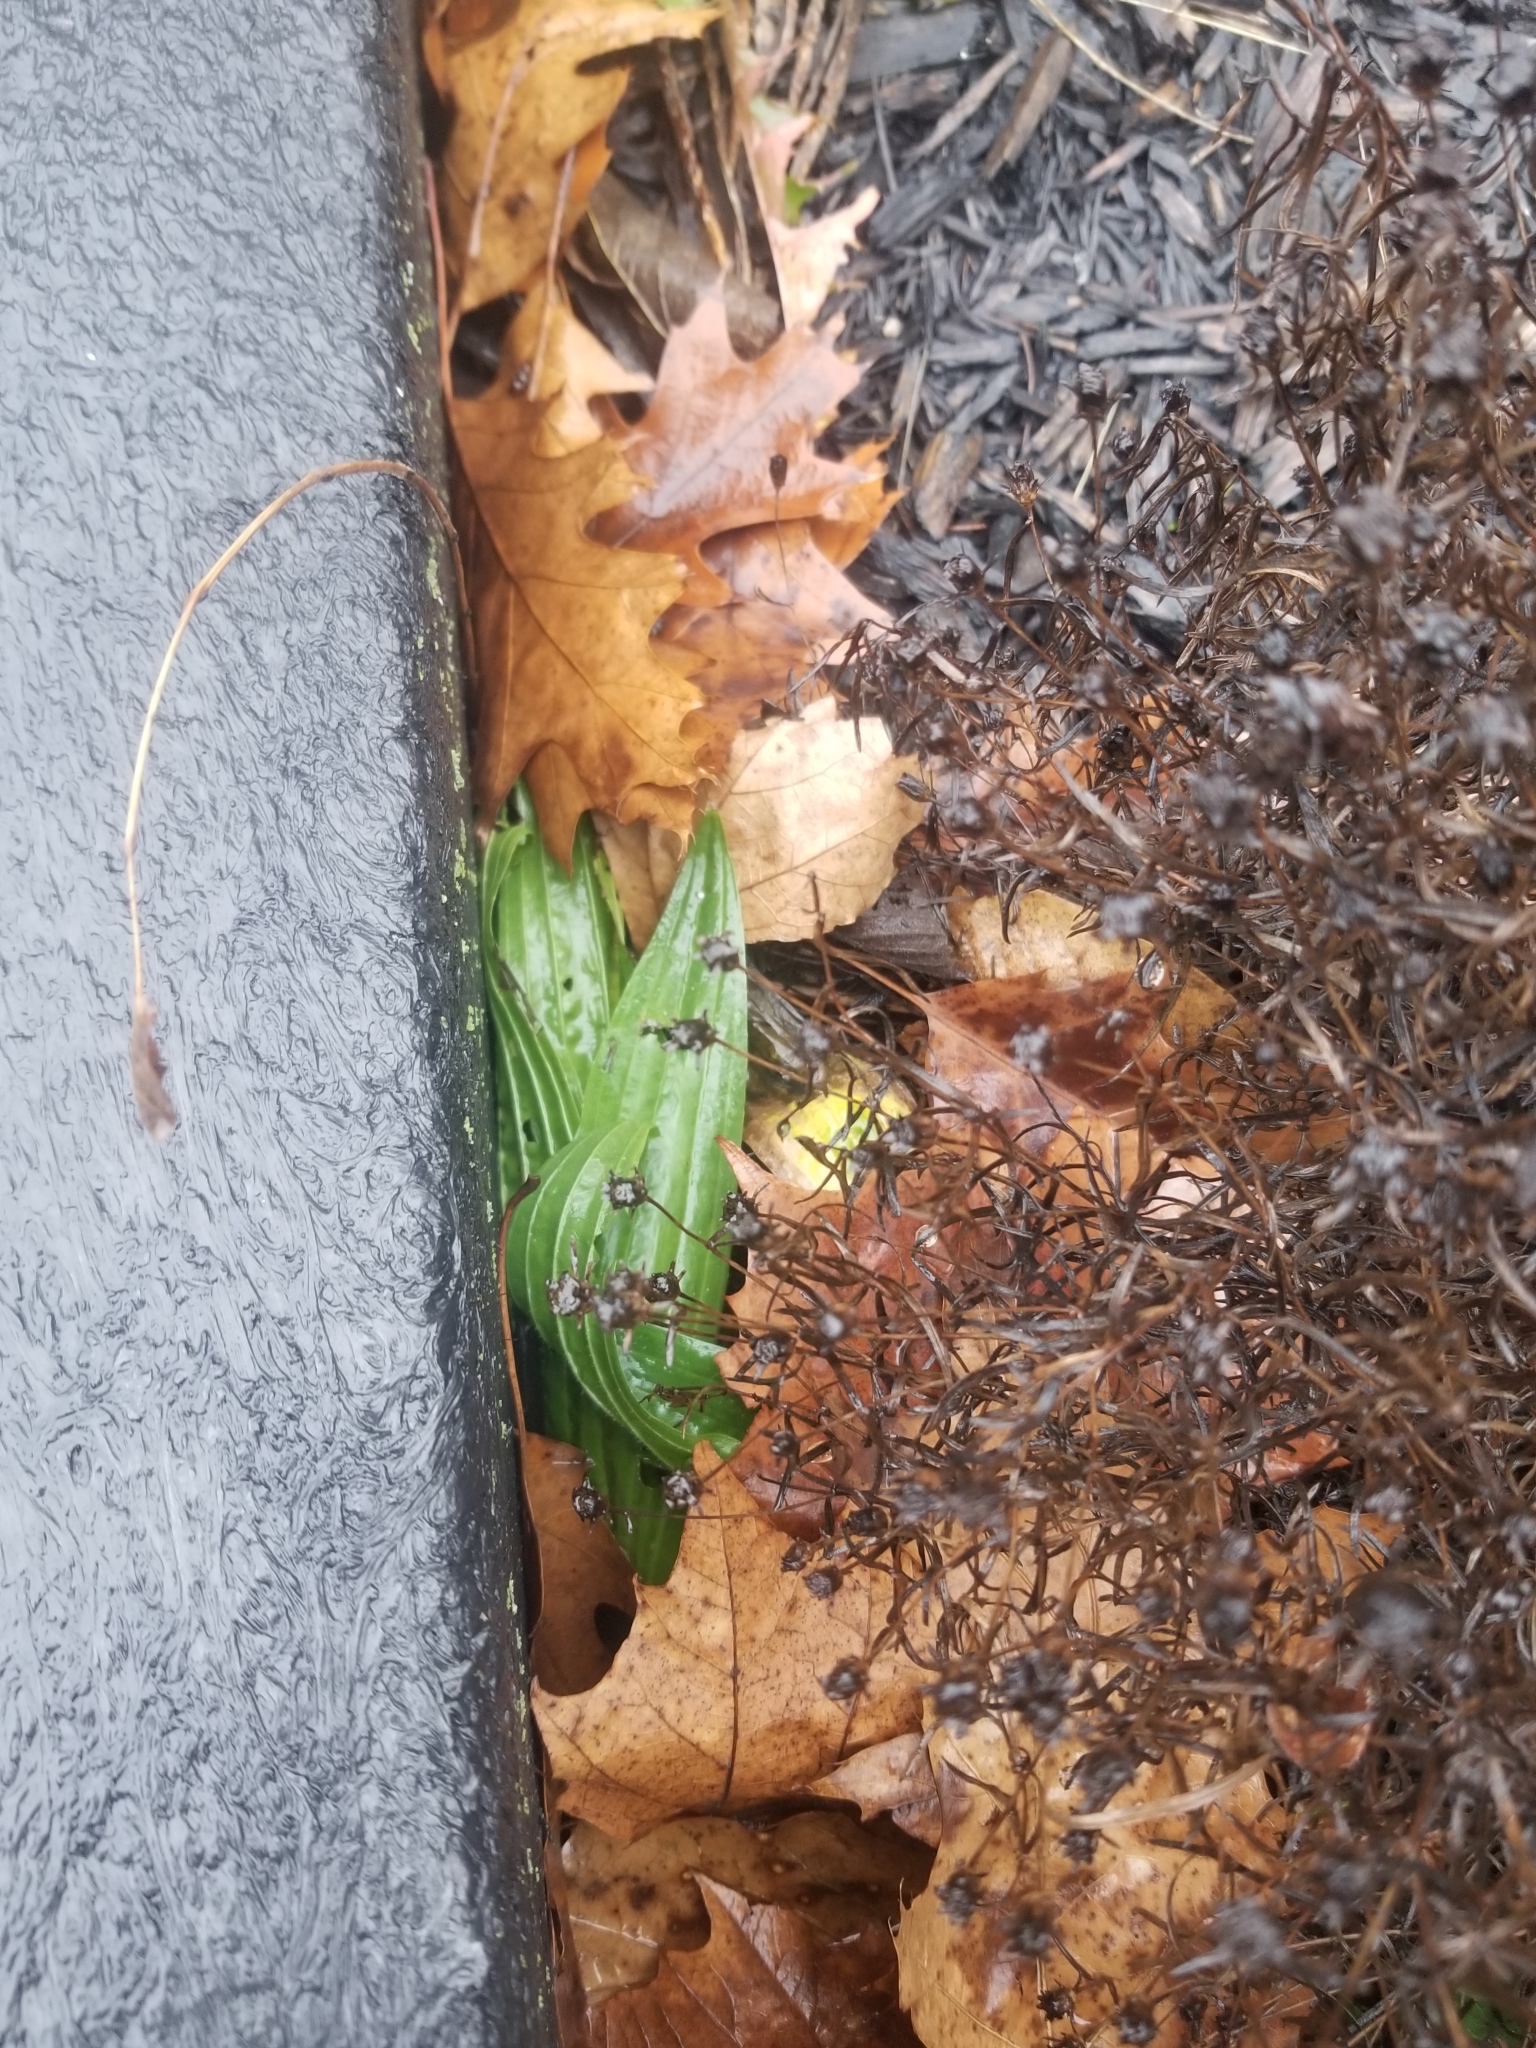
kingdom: Plantae
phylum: Tracheophyta
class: Magnoliopsida
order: Lamiales
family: Plantaginaceae
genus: Plantago
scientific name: Plantago lanceolata
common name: Ribwort plantain
